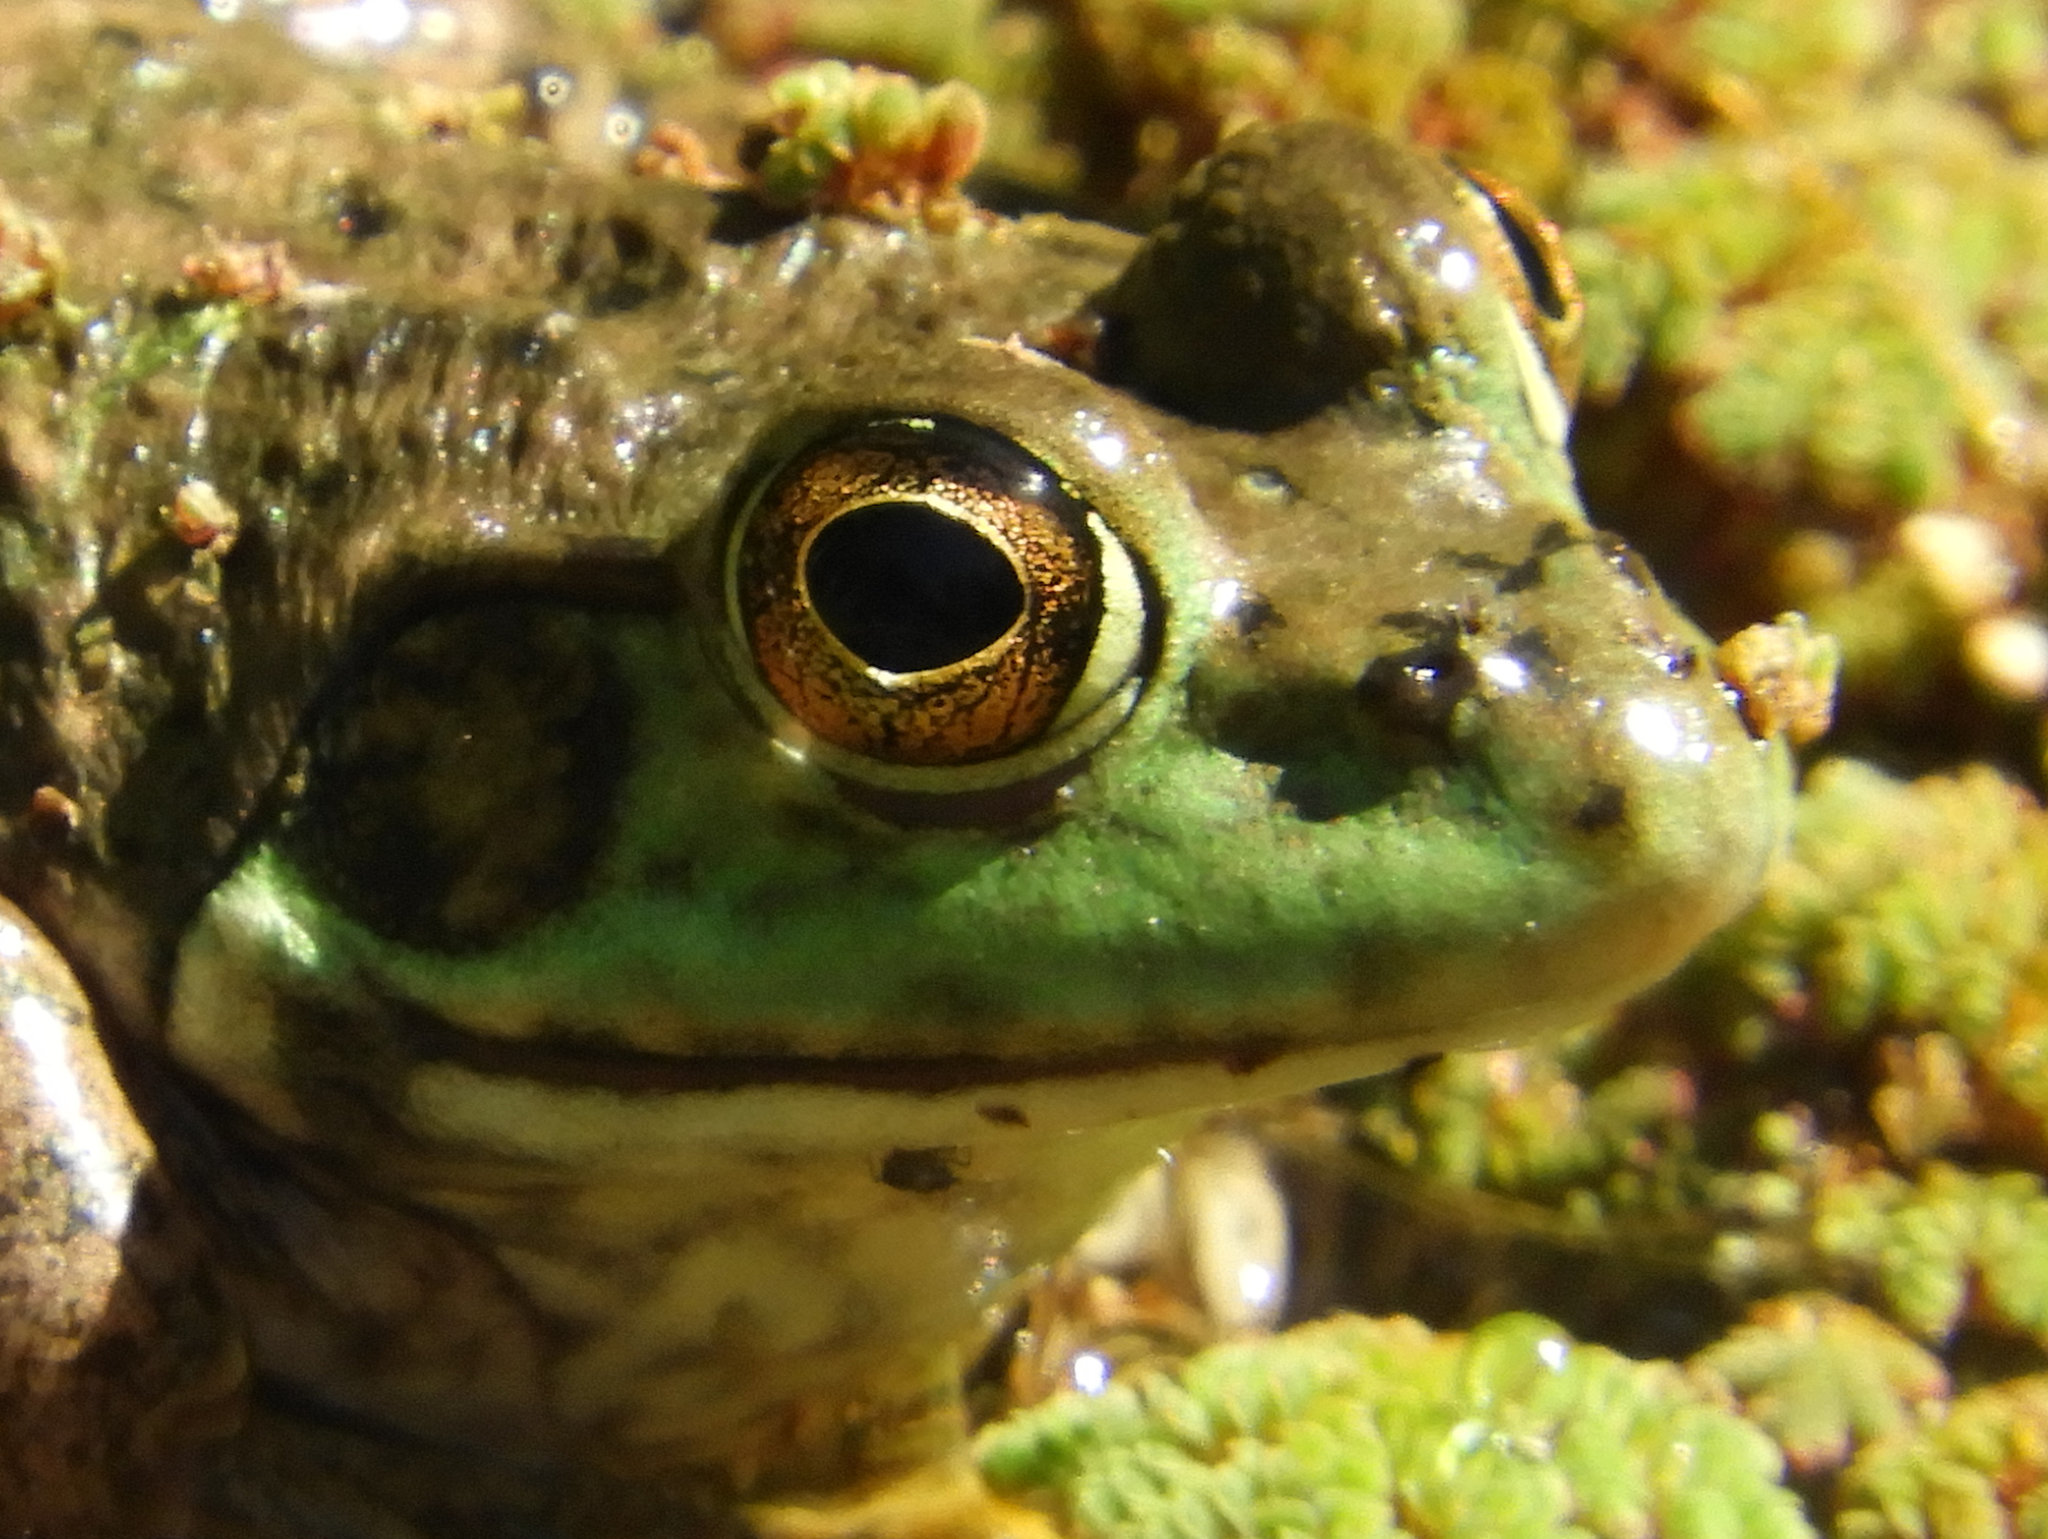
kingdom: Animalia
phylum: Chordata
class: Amphibia
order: Anura
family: Ranidae
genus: Lithobates
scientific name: Lithobates catesbeianus
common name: American bullfrog
